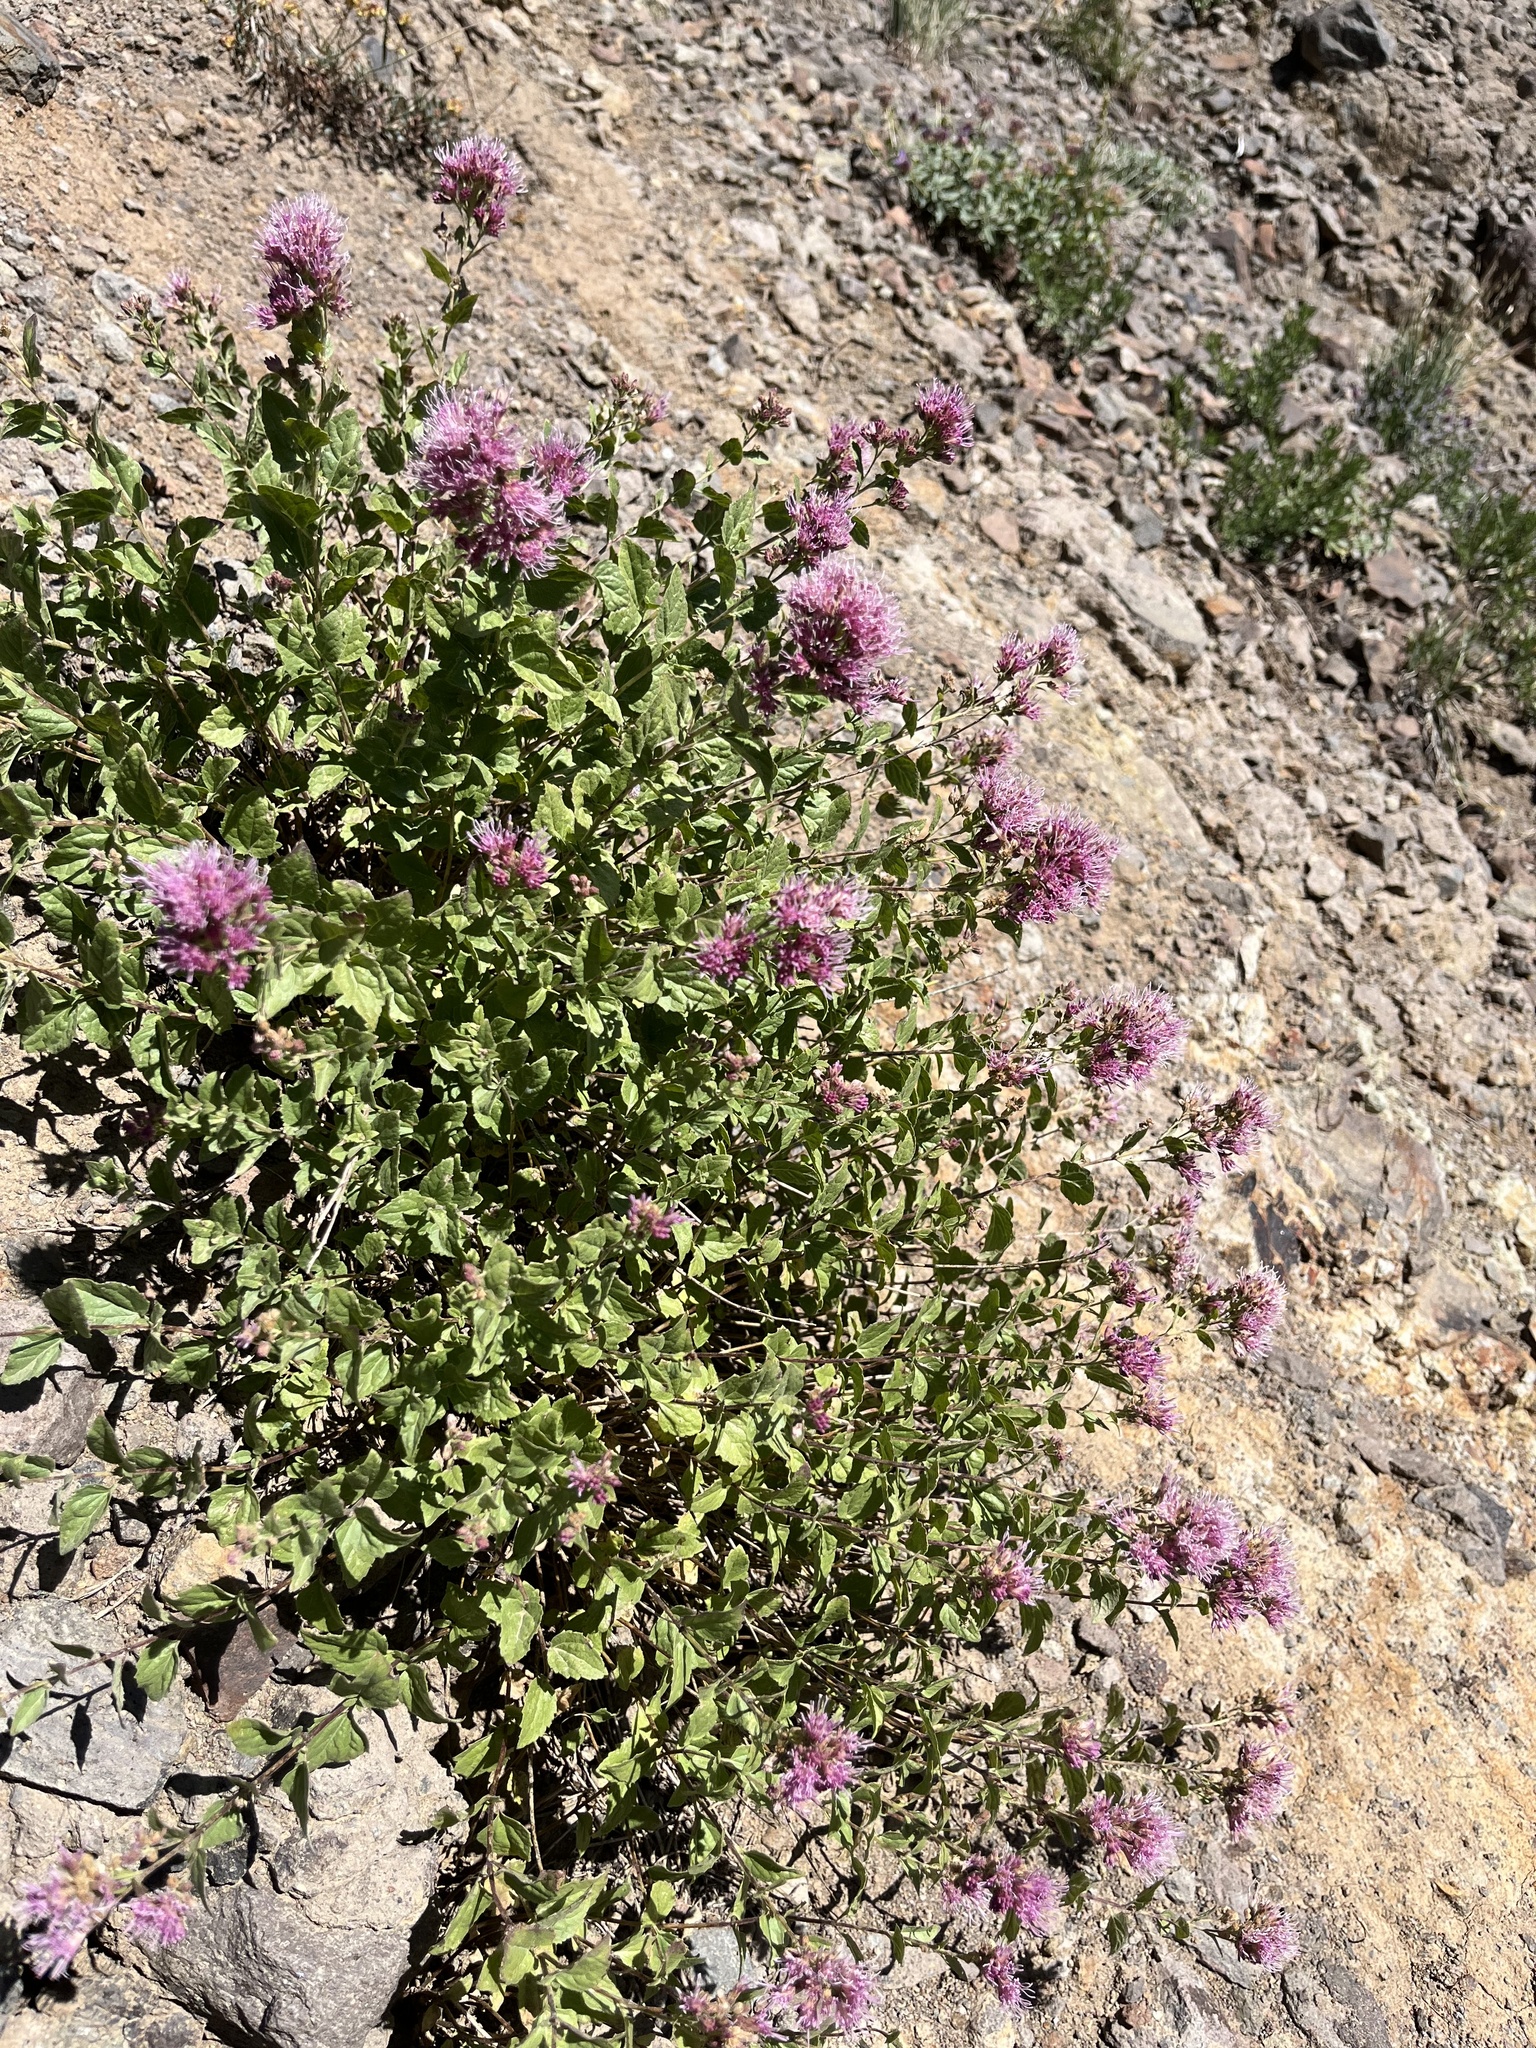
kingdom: Plantae
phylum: Tracheophyta
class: Magnoliopsida
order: Asterales
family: Asteraceae
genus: Ageratina
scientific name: Ageratina occidentalis
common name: Western snakeroot
